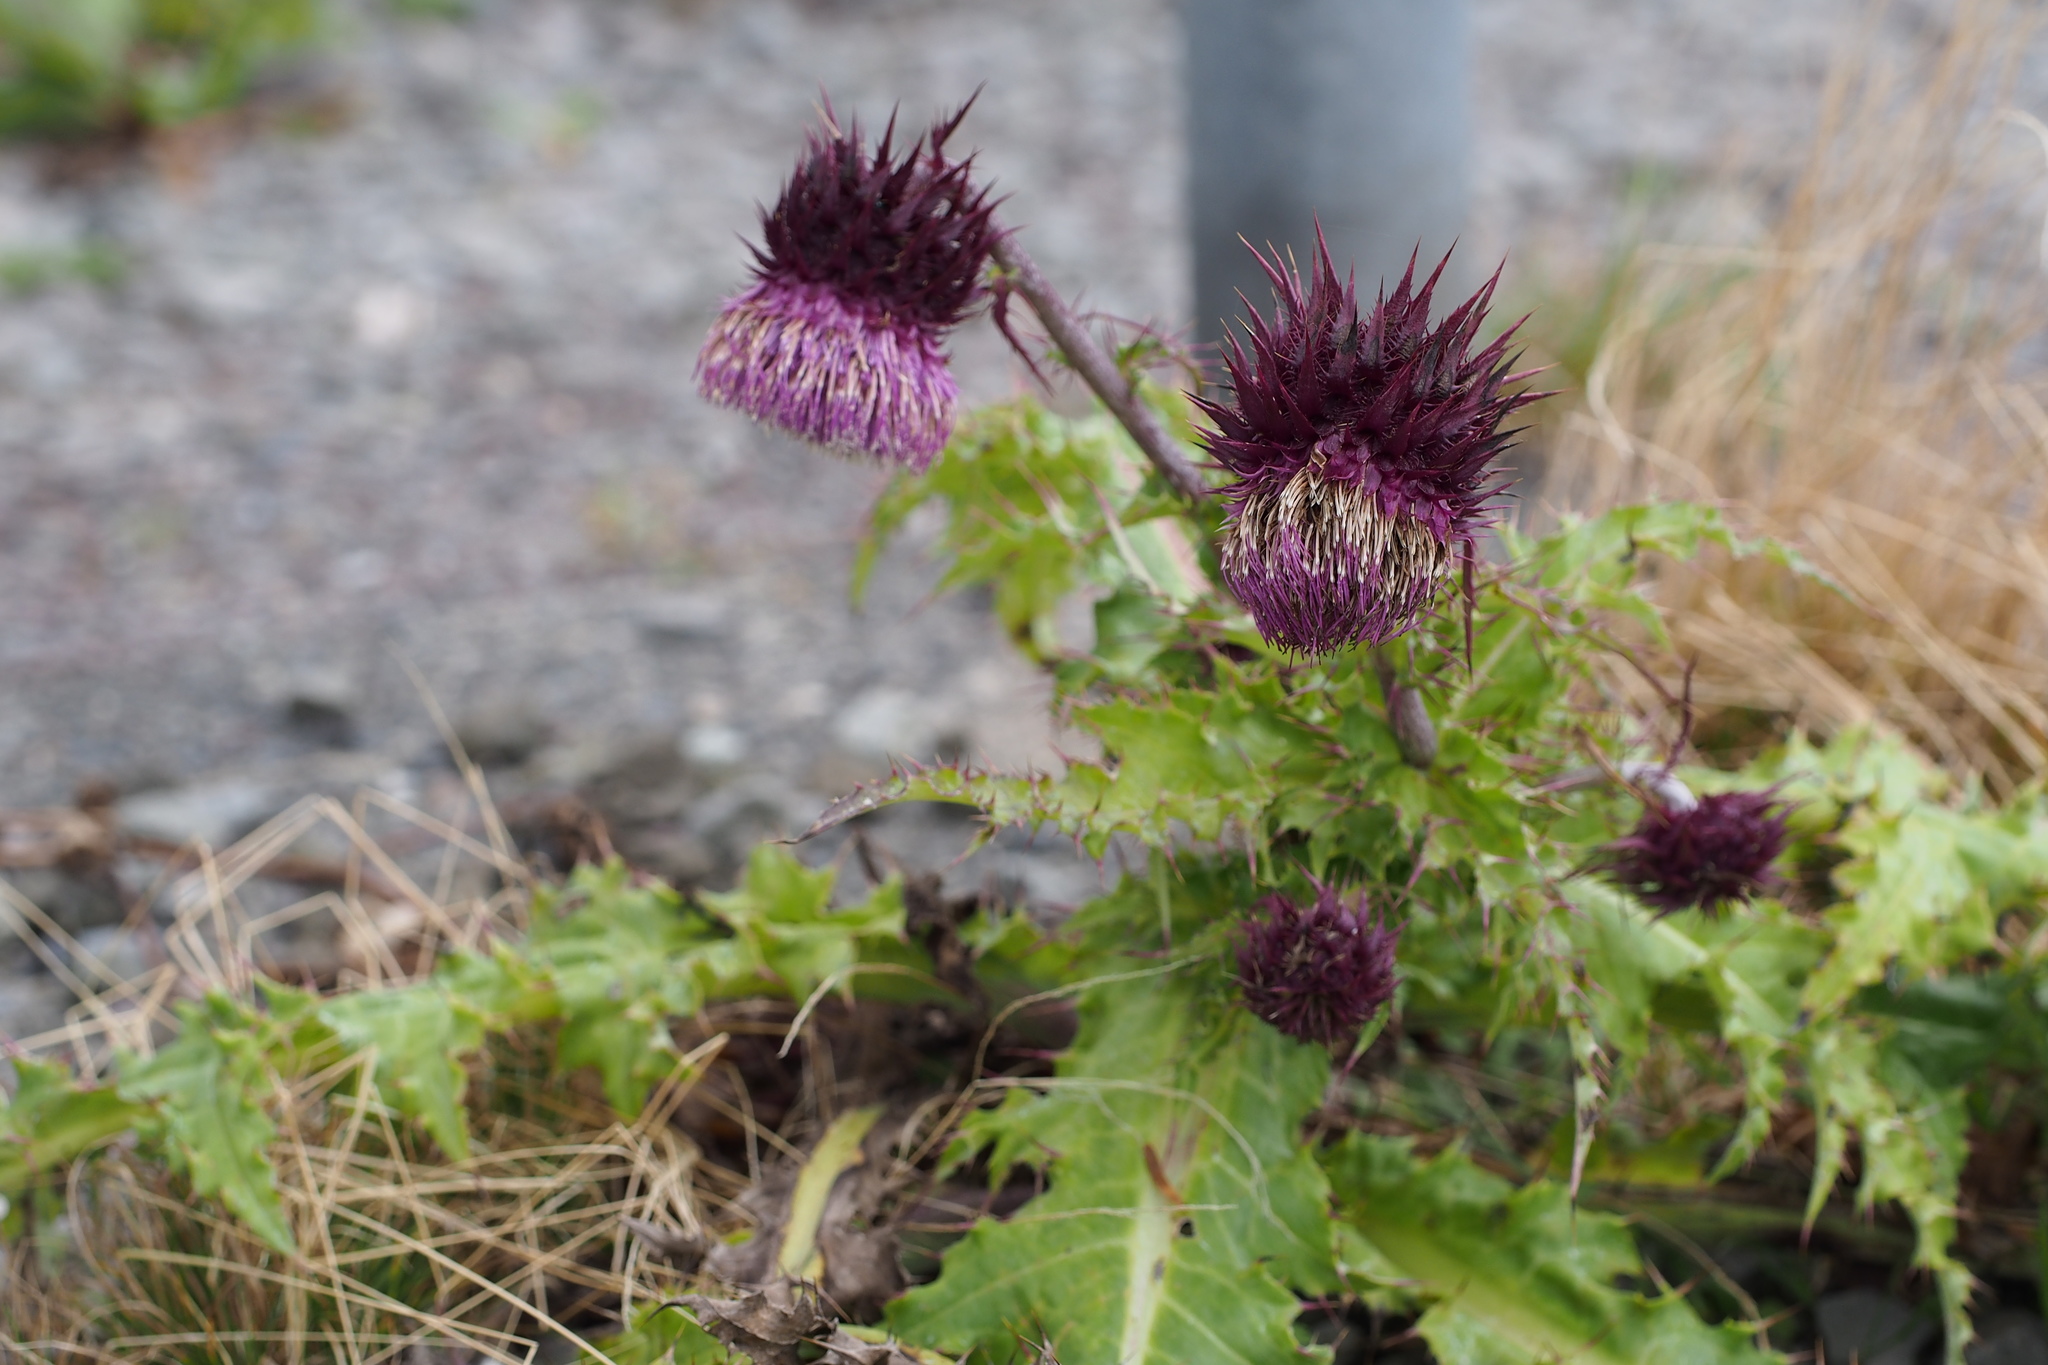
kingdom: Plantae
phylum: Tracheophyta
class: Magnoliopsida
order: Asterales
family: Asteraceae
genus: Cirsium
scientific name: Cirsium purpuratum
